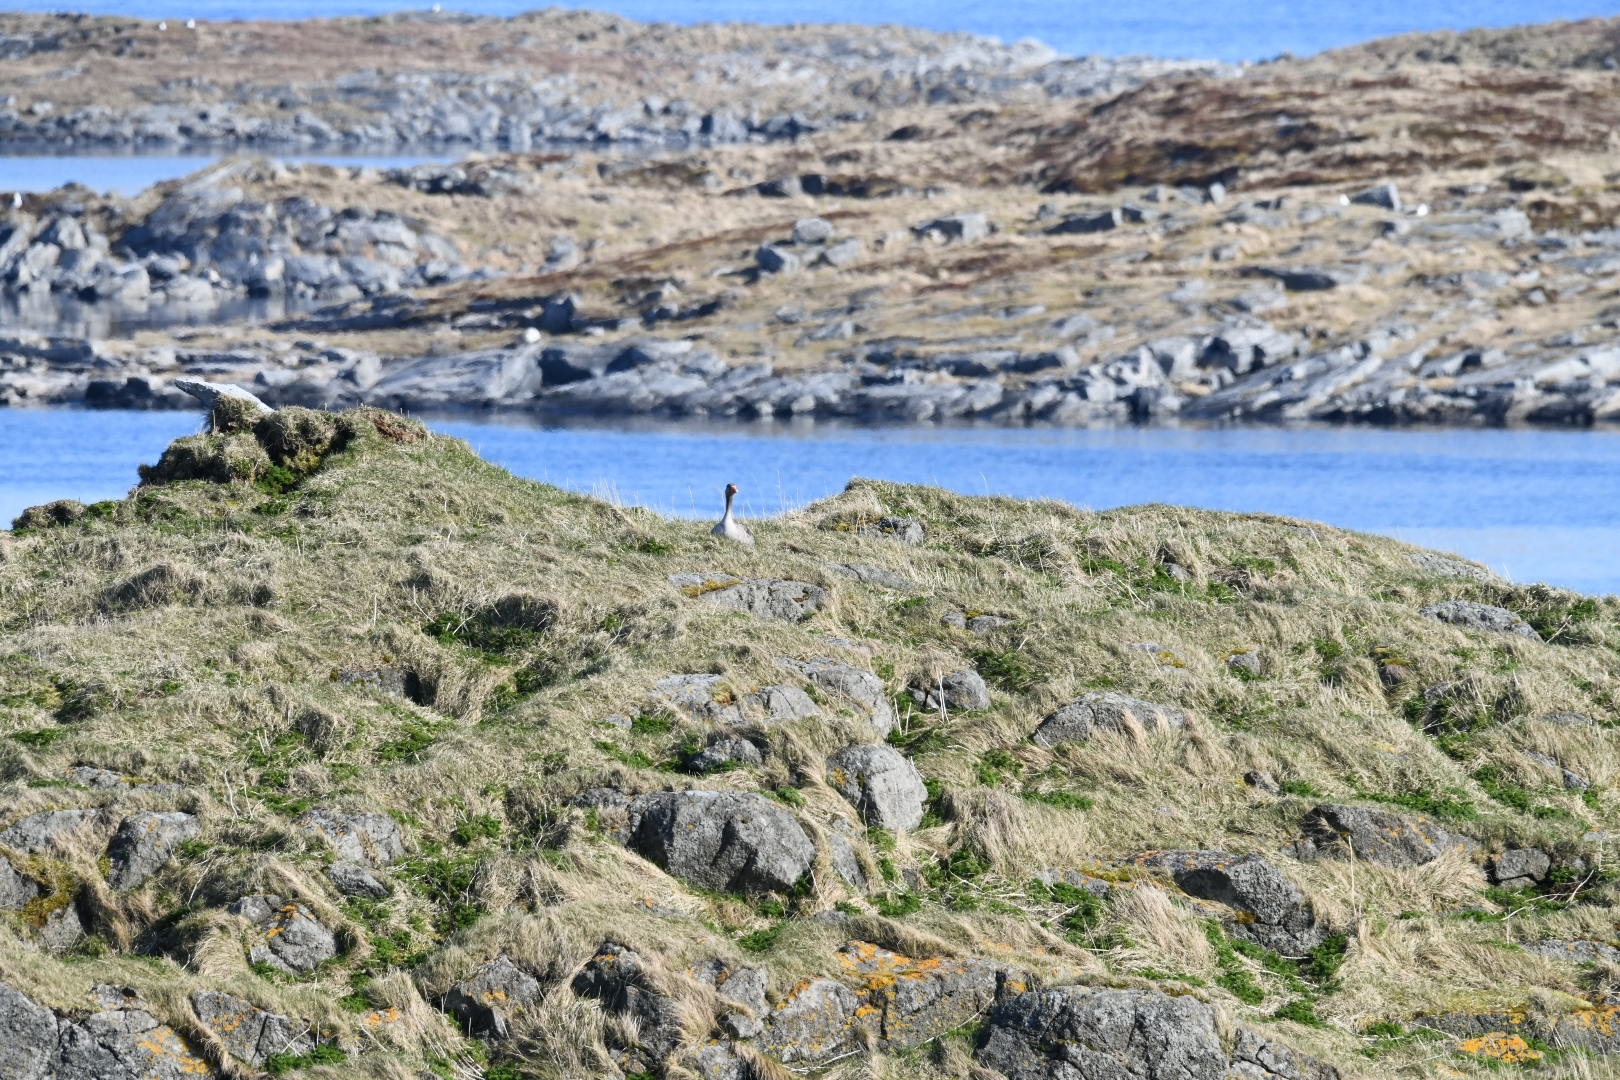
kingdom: Animalia
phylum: Chordata
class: Aves
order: Anseriformes
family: Anatidae
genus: Anser
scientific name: Anser anser
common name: Greylag goose
